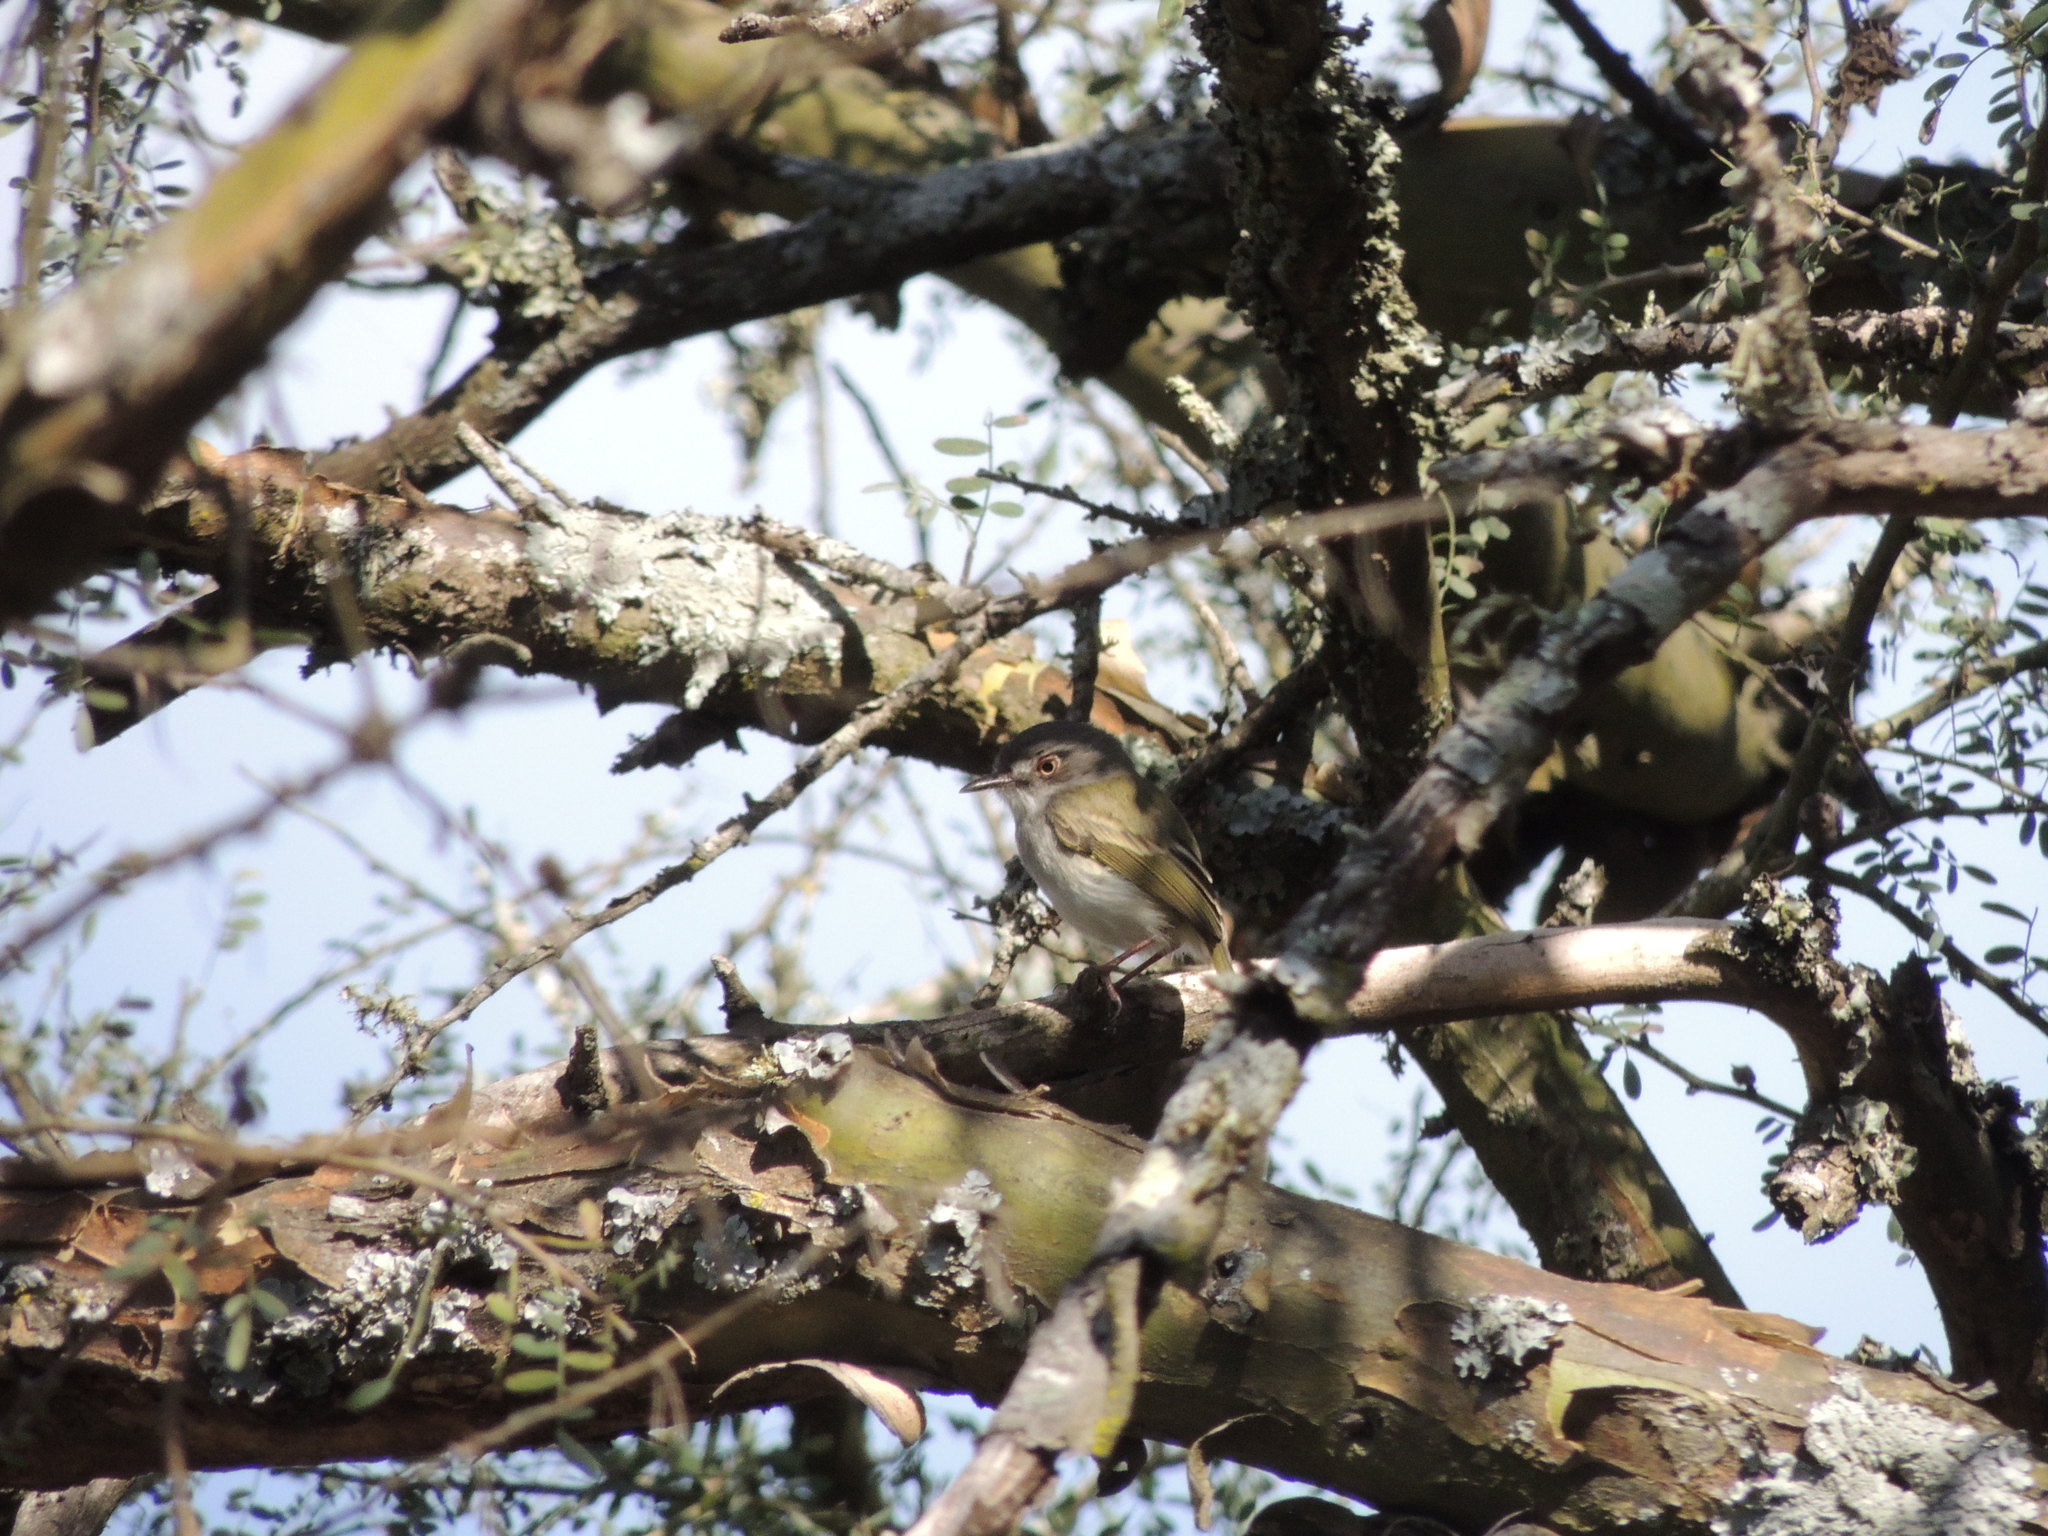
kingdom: Animalia
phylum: Chordata
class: Aves
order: Passeriformes
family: Tyrannidae
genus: Hemitriccus
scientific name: Hemitriccus margaritaceiventer
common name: Pearly-vented tody-tyrant
